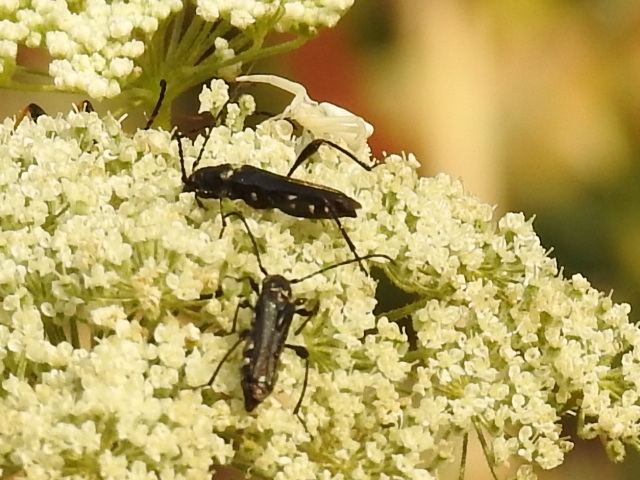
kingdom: Animalia
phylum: Arthropoda
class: Insecta
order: Coleoptera
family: Cerambycidae
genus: Stenopterus
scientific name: Stenopterus ater
